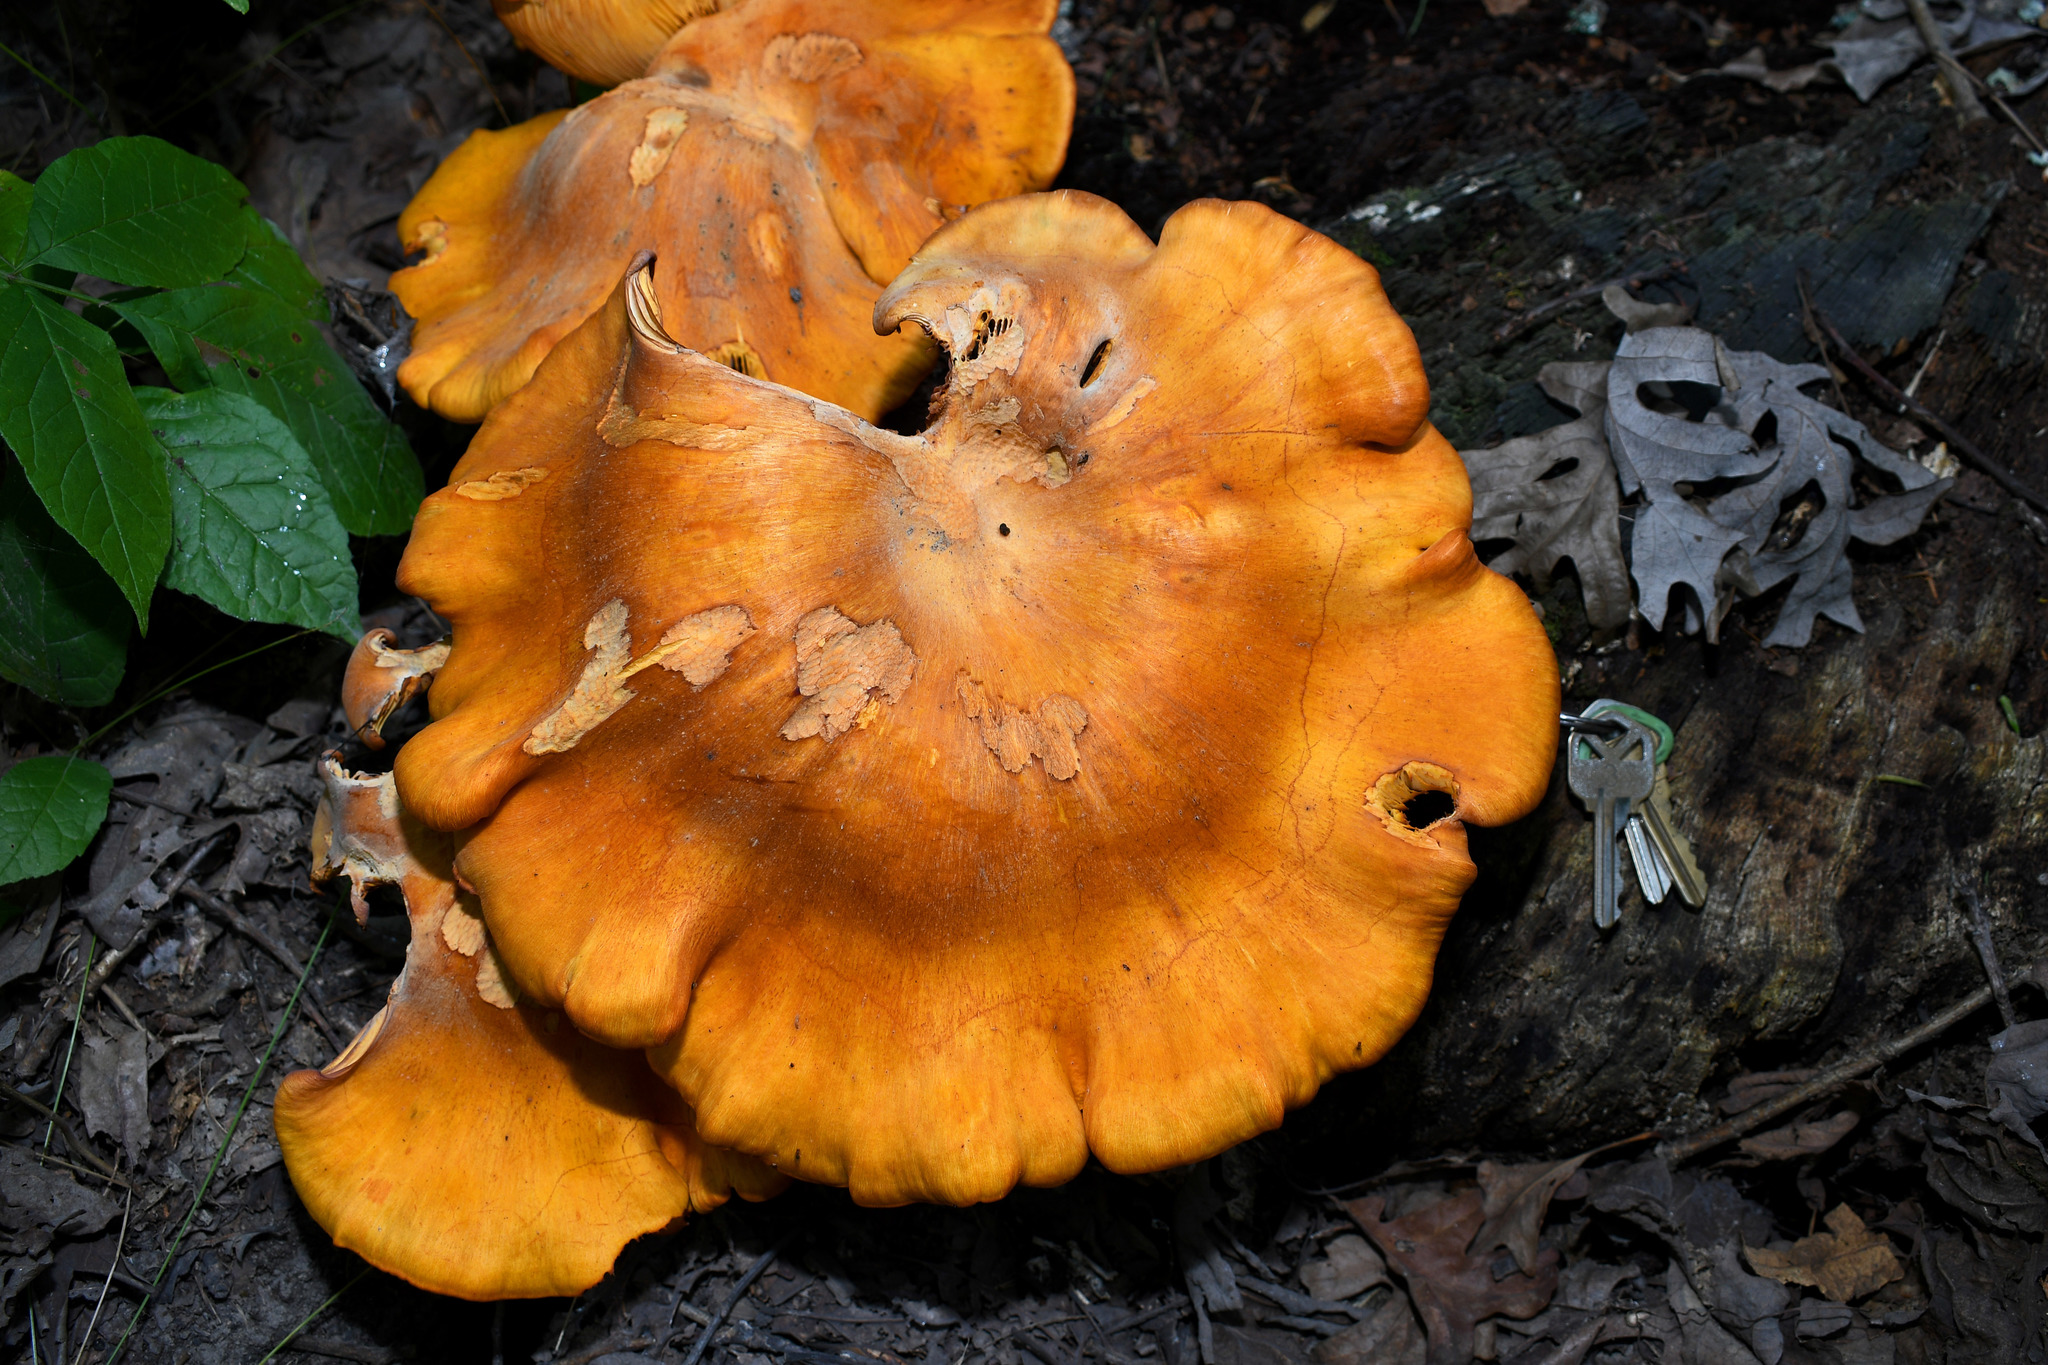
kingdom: Fungi
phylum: Basidiomycota
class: Agaricomycetes
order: Agaricales
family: Omphalotaceae
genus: Omphalotus
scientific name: Omphalotus illudens
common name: Jack o lantern
